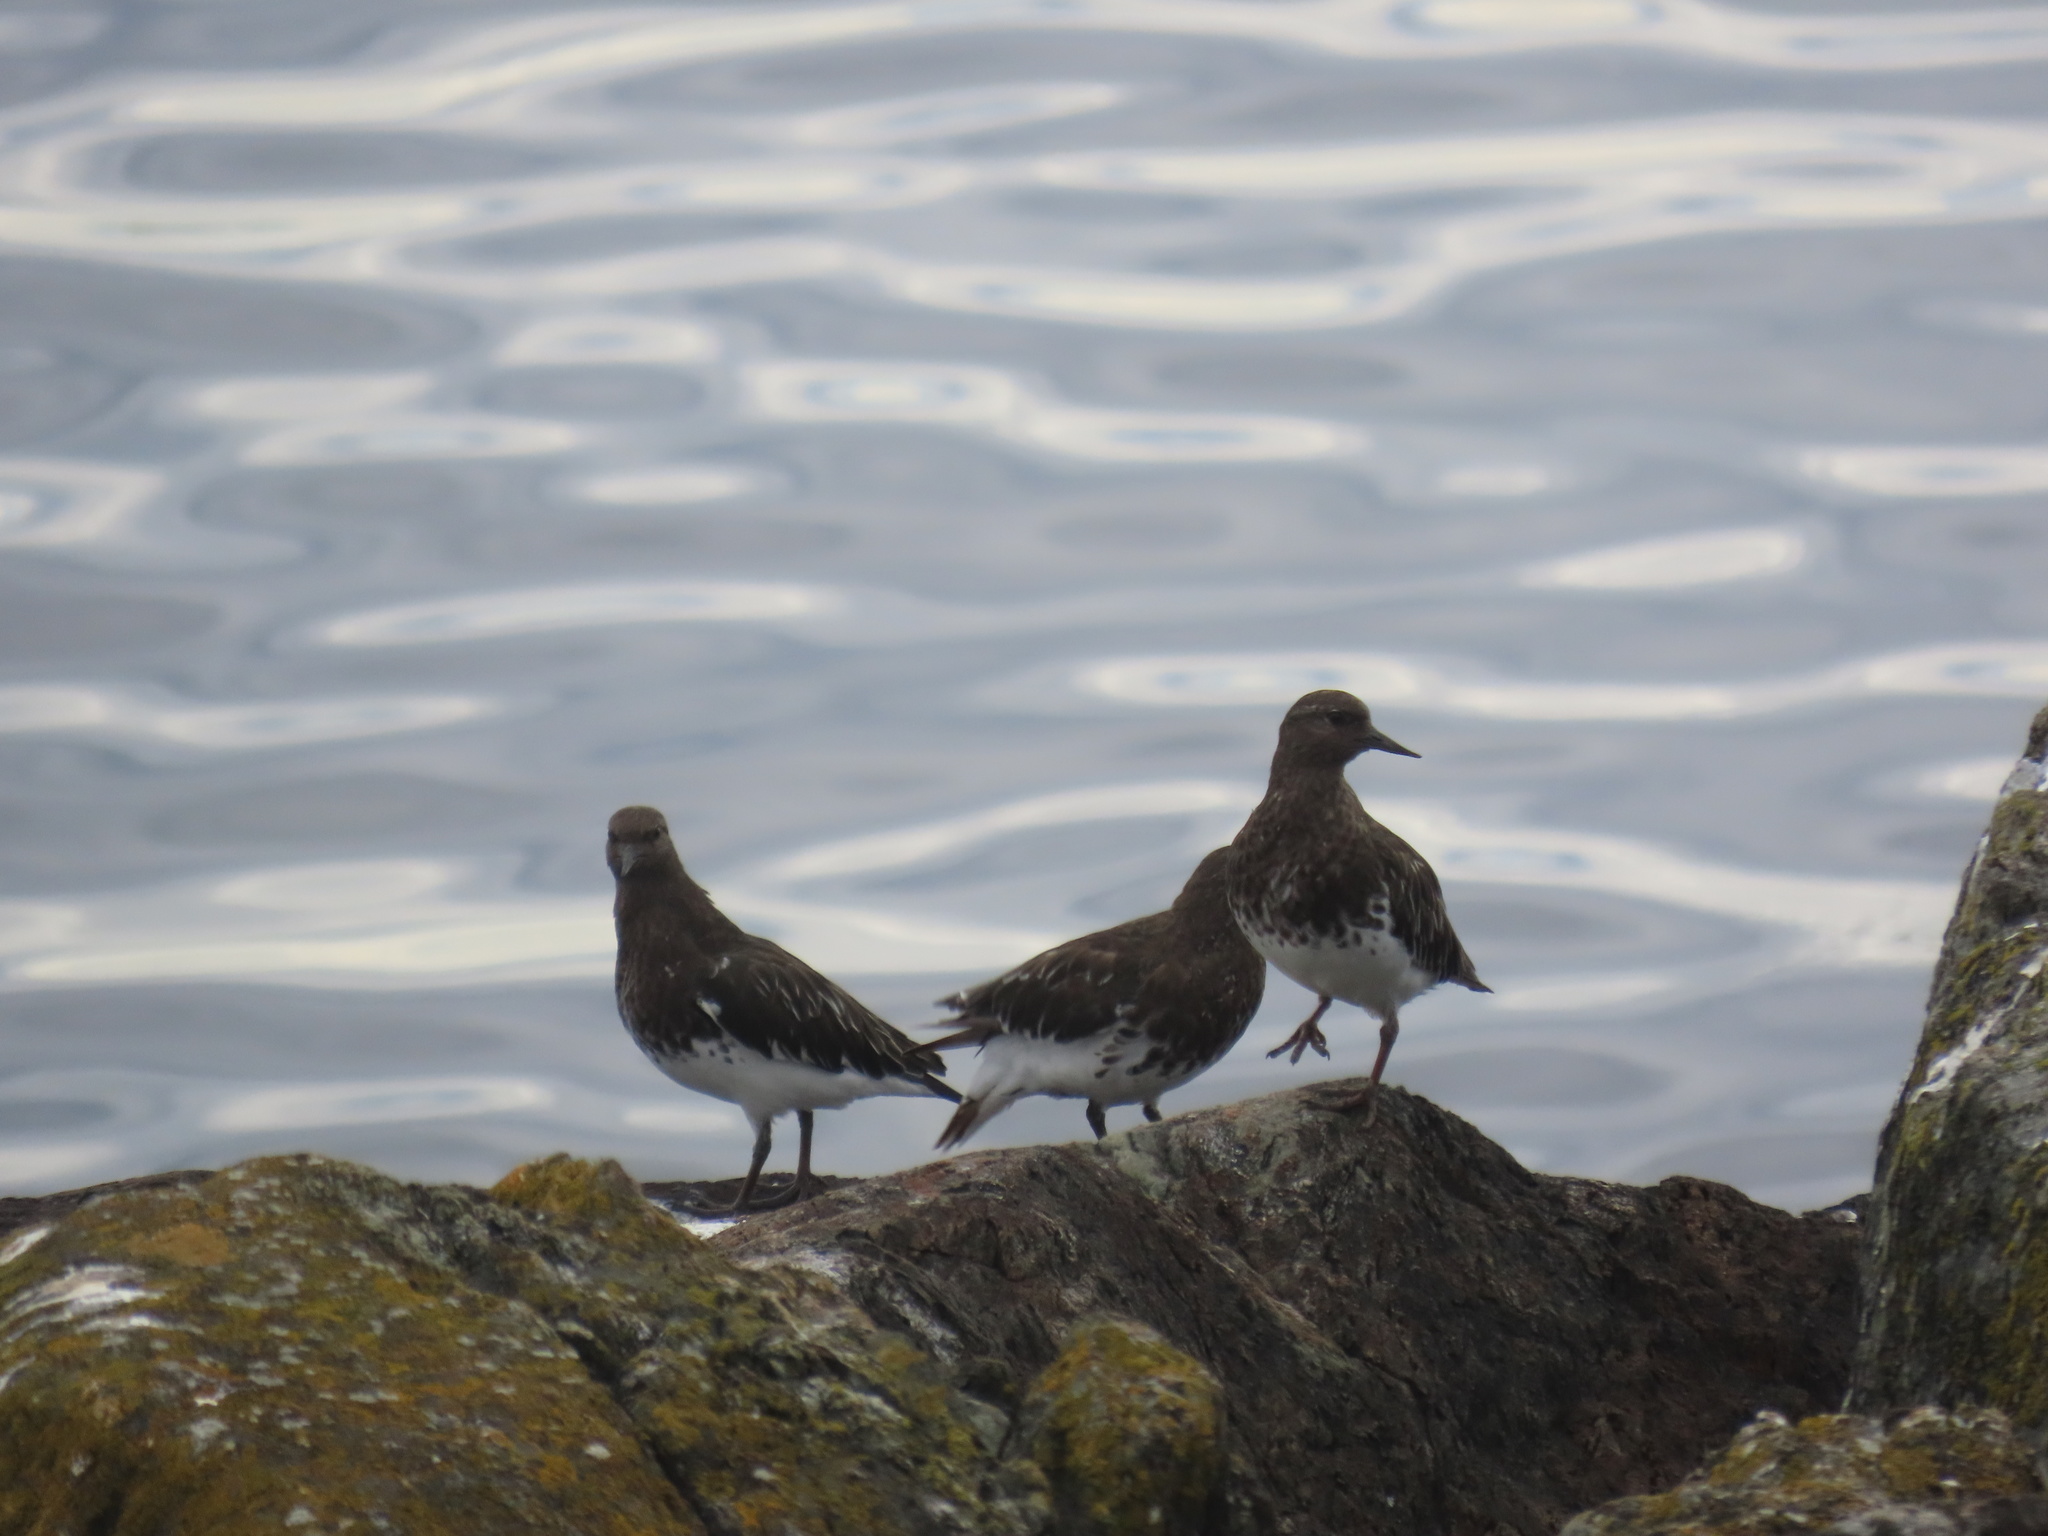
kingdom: Animalia
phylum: Chordata
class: Aves
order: Charadriiformes
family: Scolopacidae
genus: Arenaria
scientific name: Arenaria melanocephala
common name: Black turnstone
